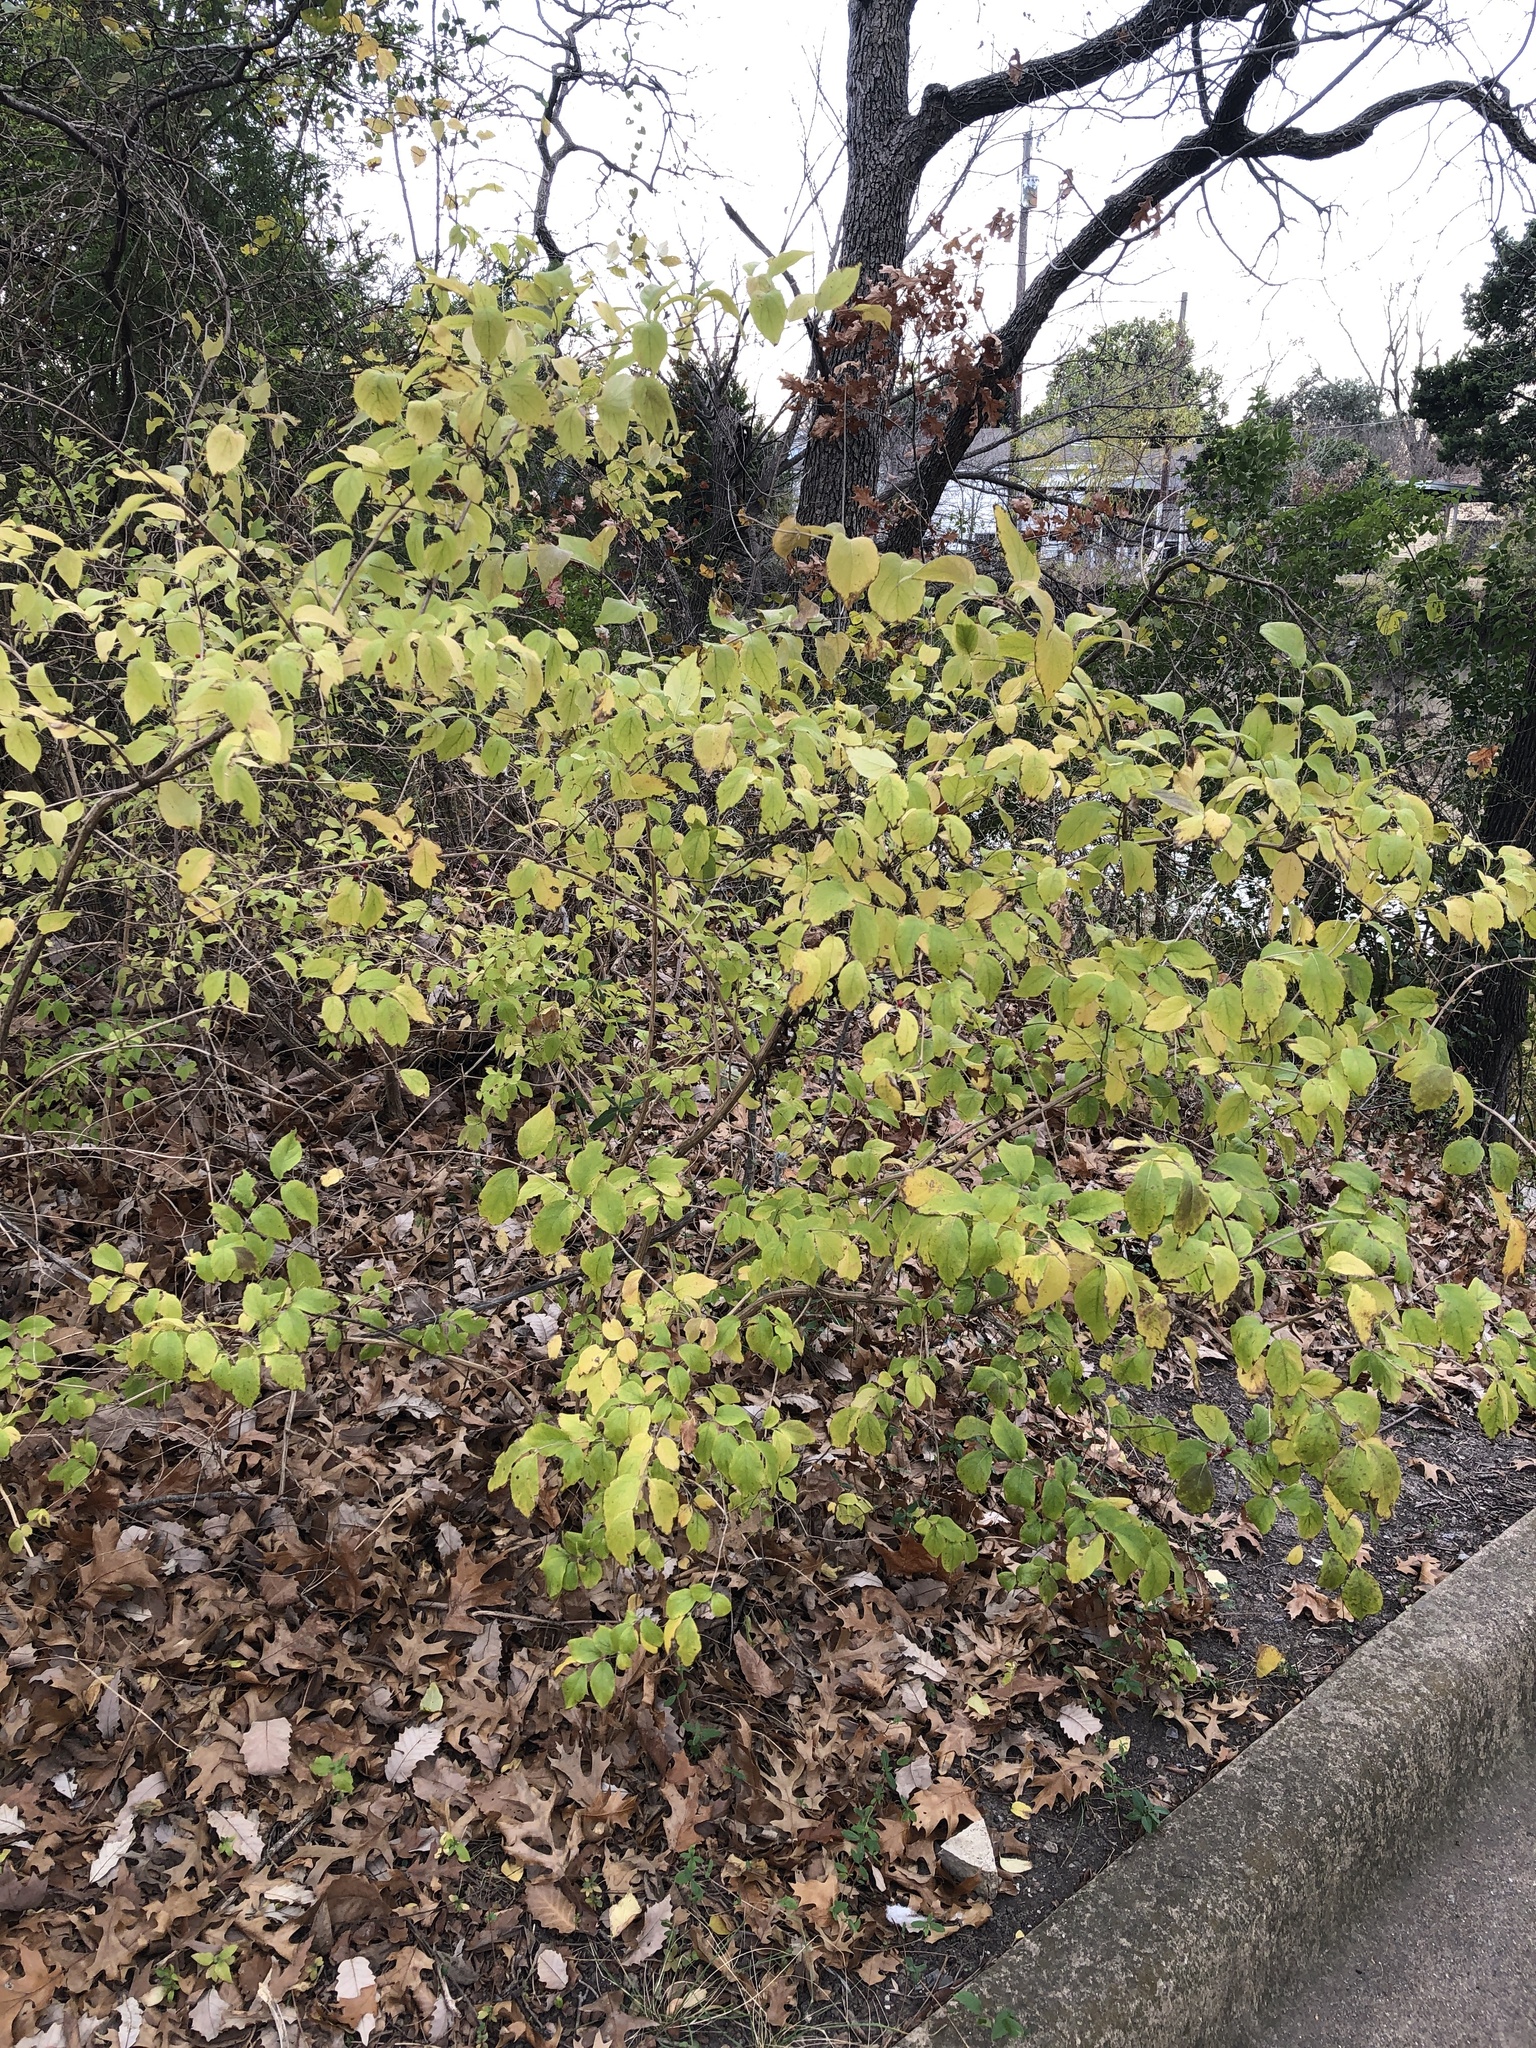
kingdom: Plantae
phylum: Tracheophyta
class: Magnoliopsida
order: Dipsacales
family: Caprifoliaceae
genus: Lonicera
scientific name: Lonicera maackii
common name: Amur honeysuckle
